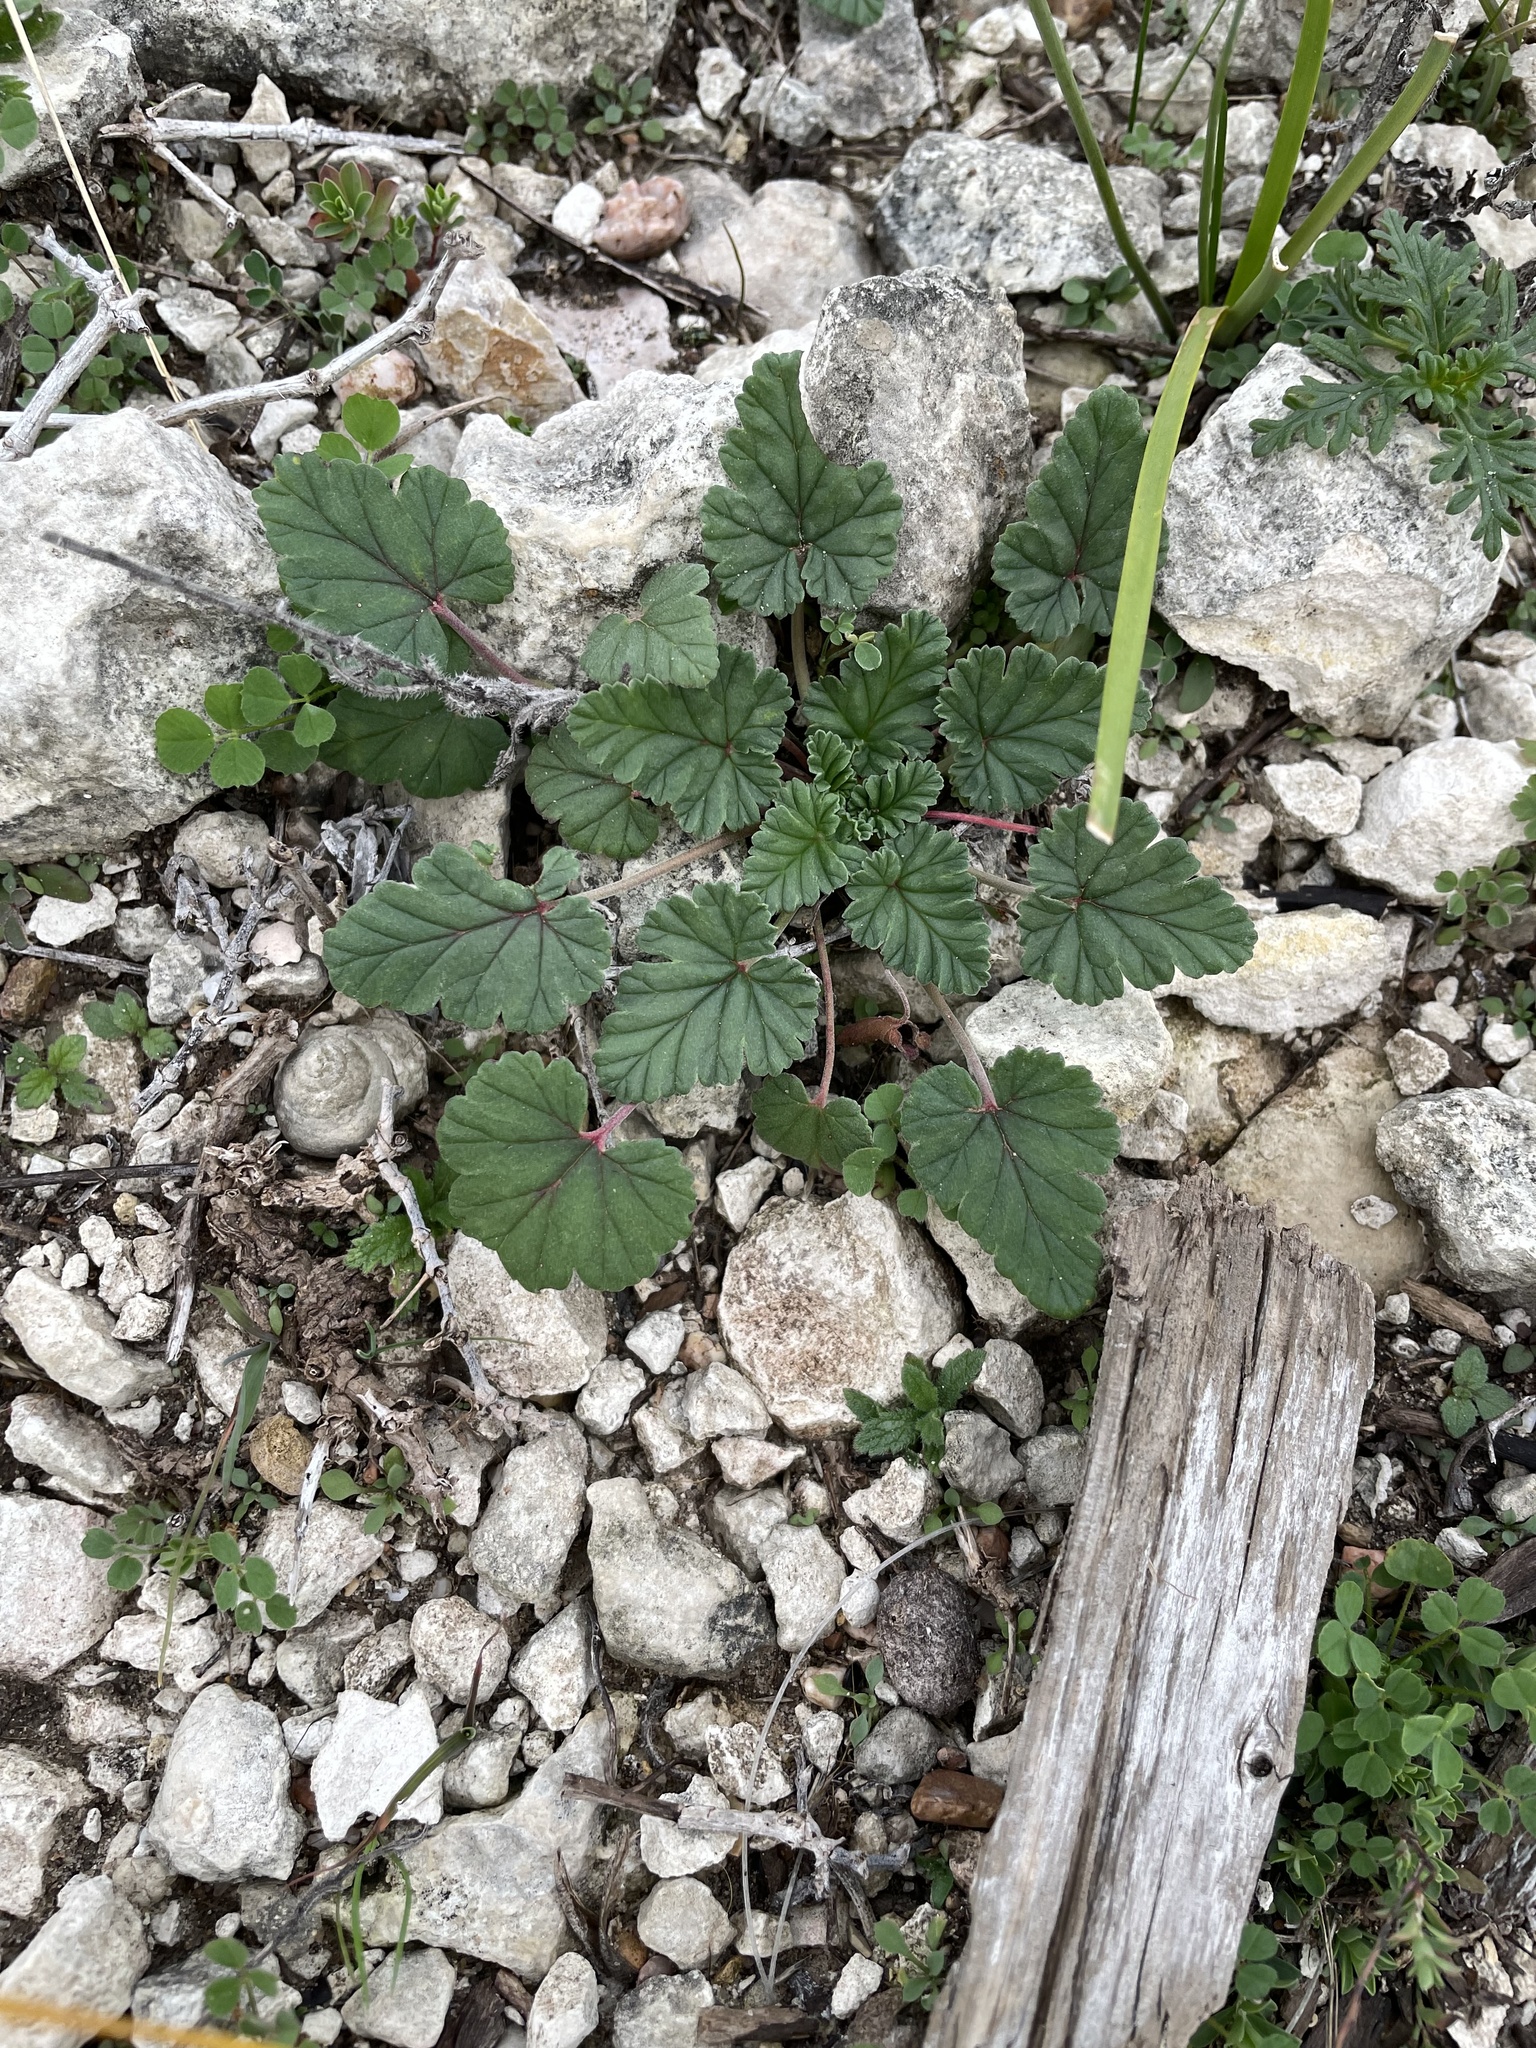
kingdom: Plantae
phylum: Tracheophyta
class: Magnoliopsida
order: Geraniales
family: Geraniaceae
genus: Erodium
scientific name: Erodium texanum
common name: Texas stork's-bill
